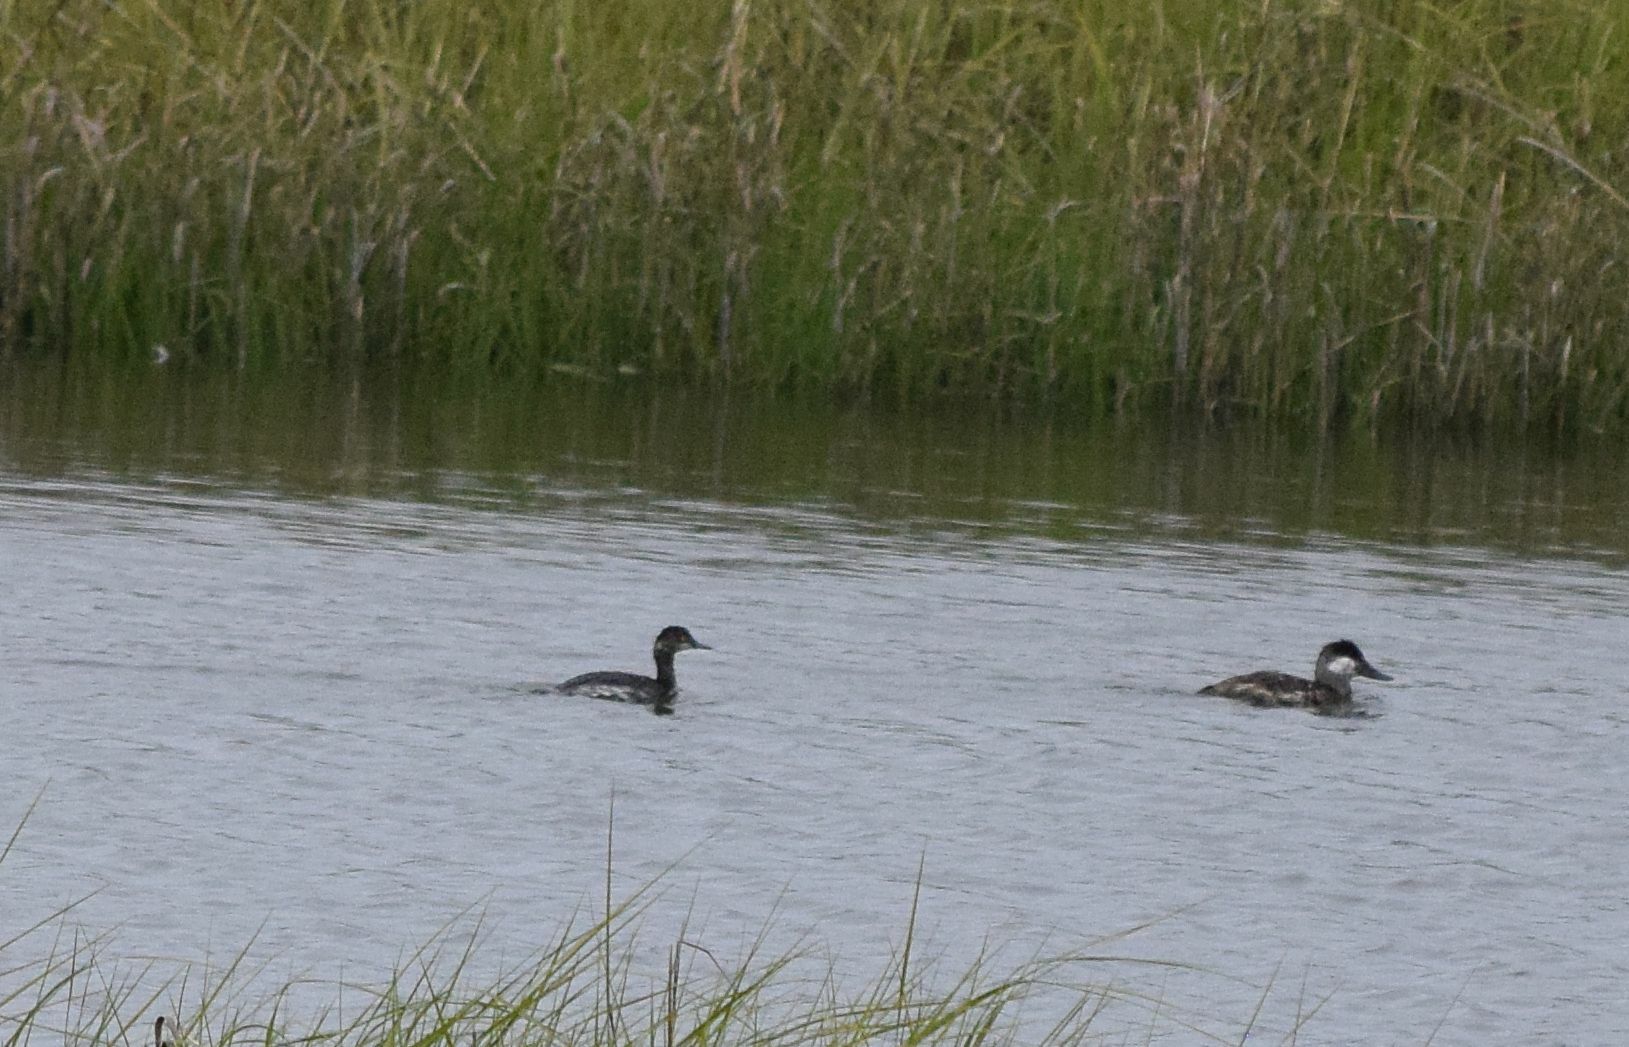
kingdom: Animalia
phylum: Chordata
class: Aves
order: Podicipediformes
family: Podicipedidae
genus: Podiceps
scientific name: Podiceps nigricollis
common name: Black-necked grebe
